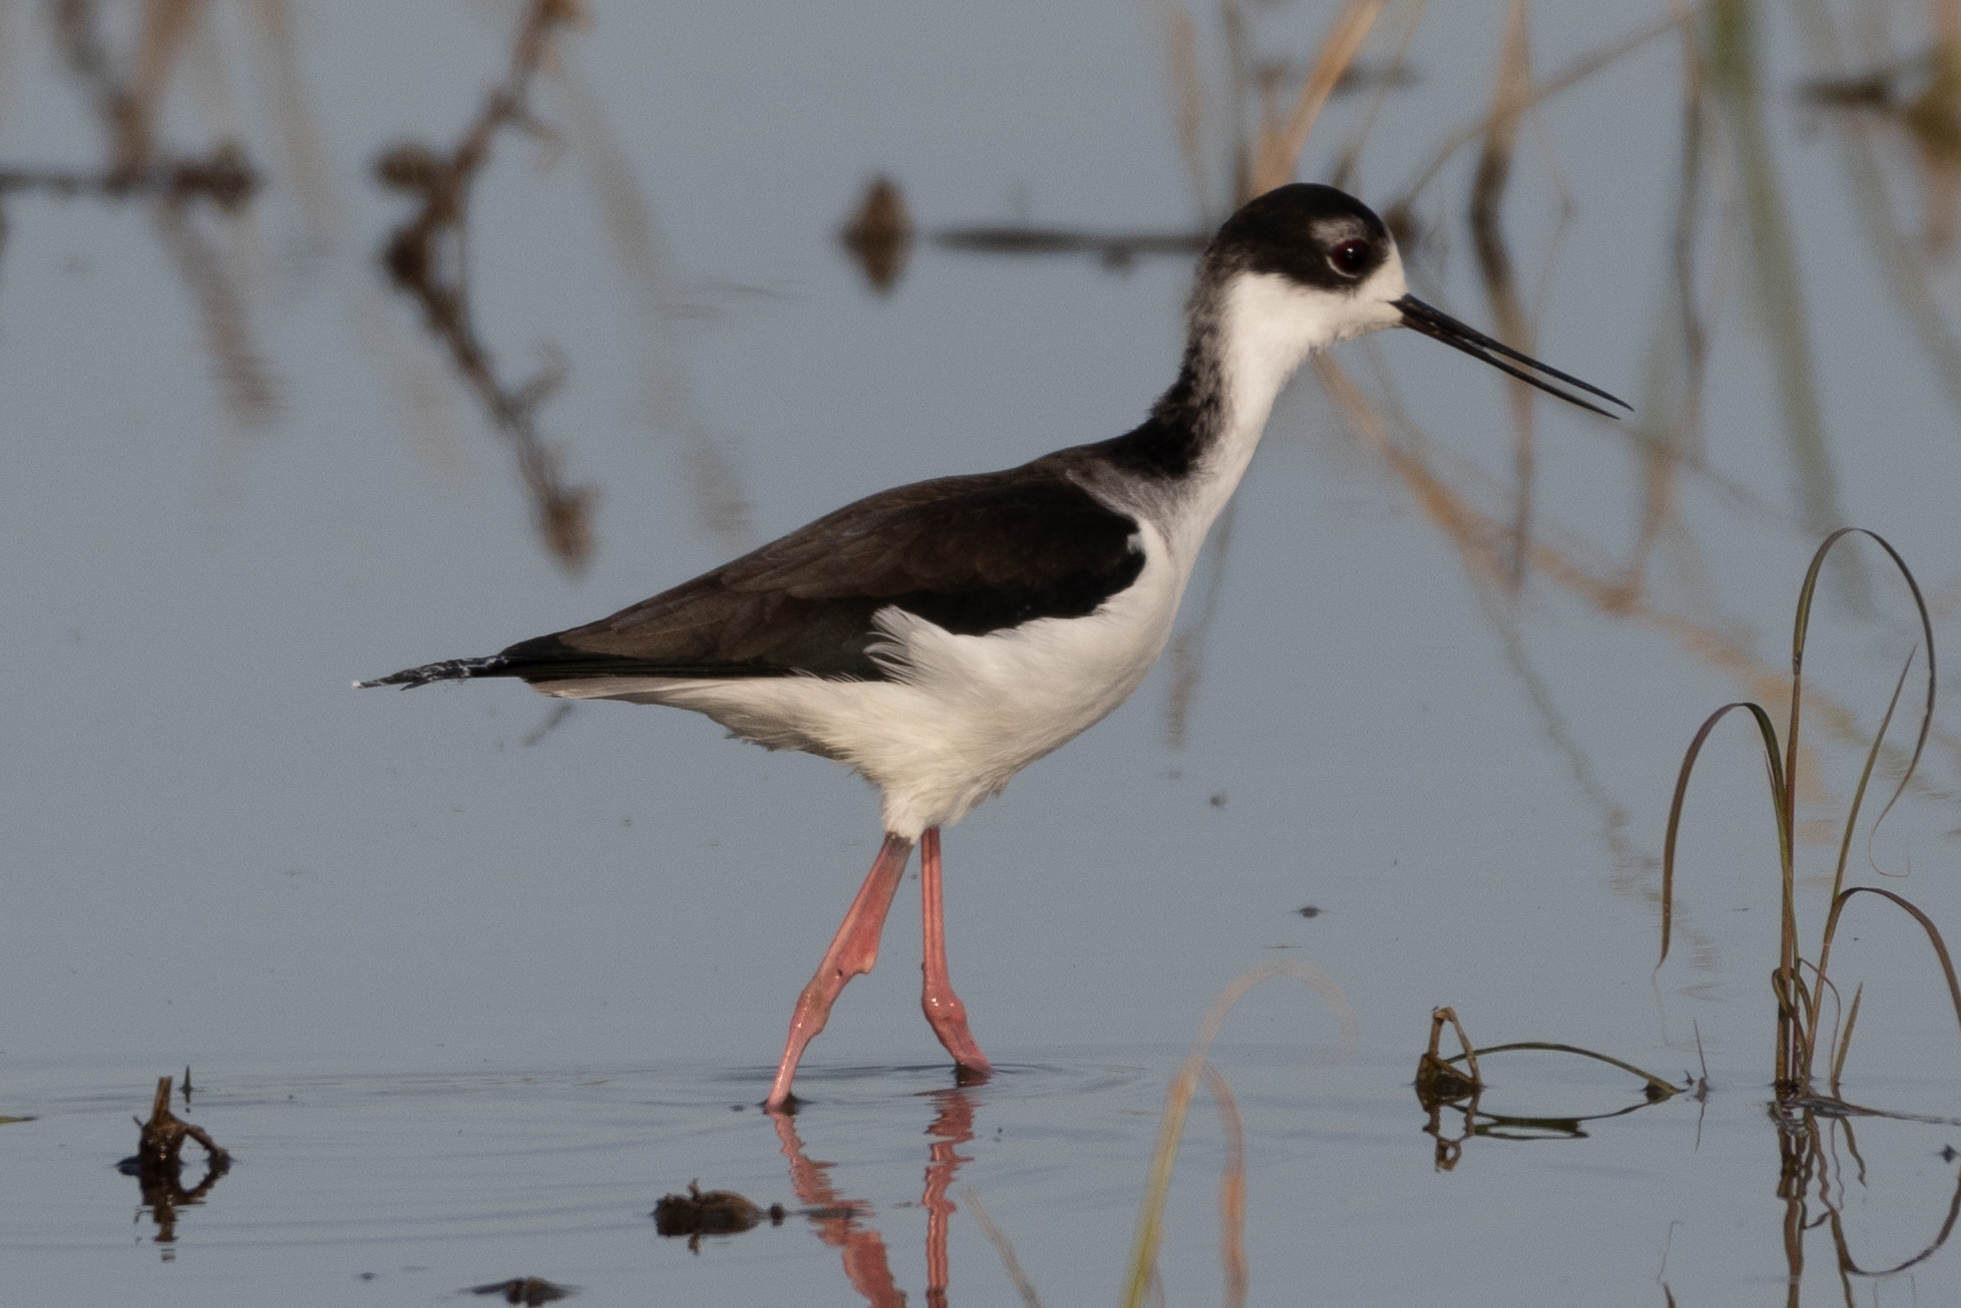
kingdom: Animalia
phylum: Chordata
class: Aves
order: Charadriiformes
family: Recurvirostridae
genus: Himantopus
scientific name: Himantopus mexicanus
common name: Black-necked stilt
